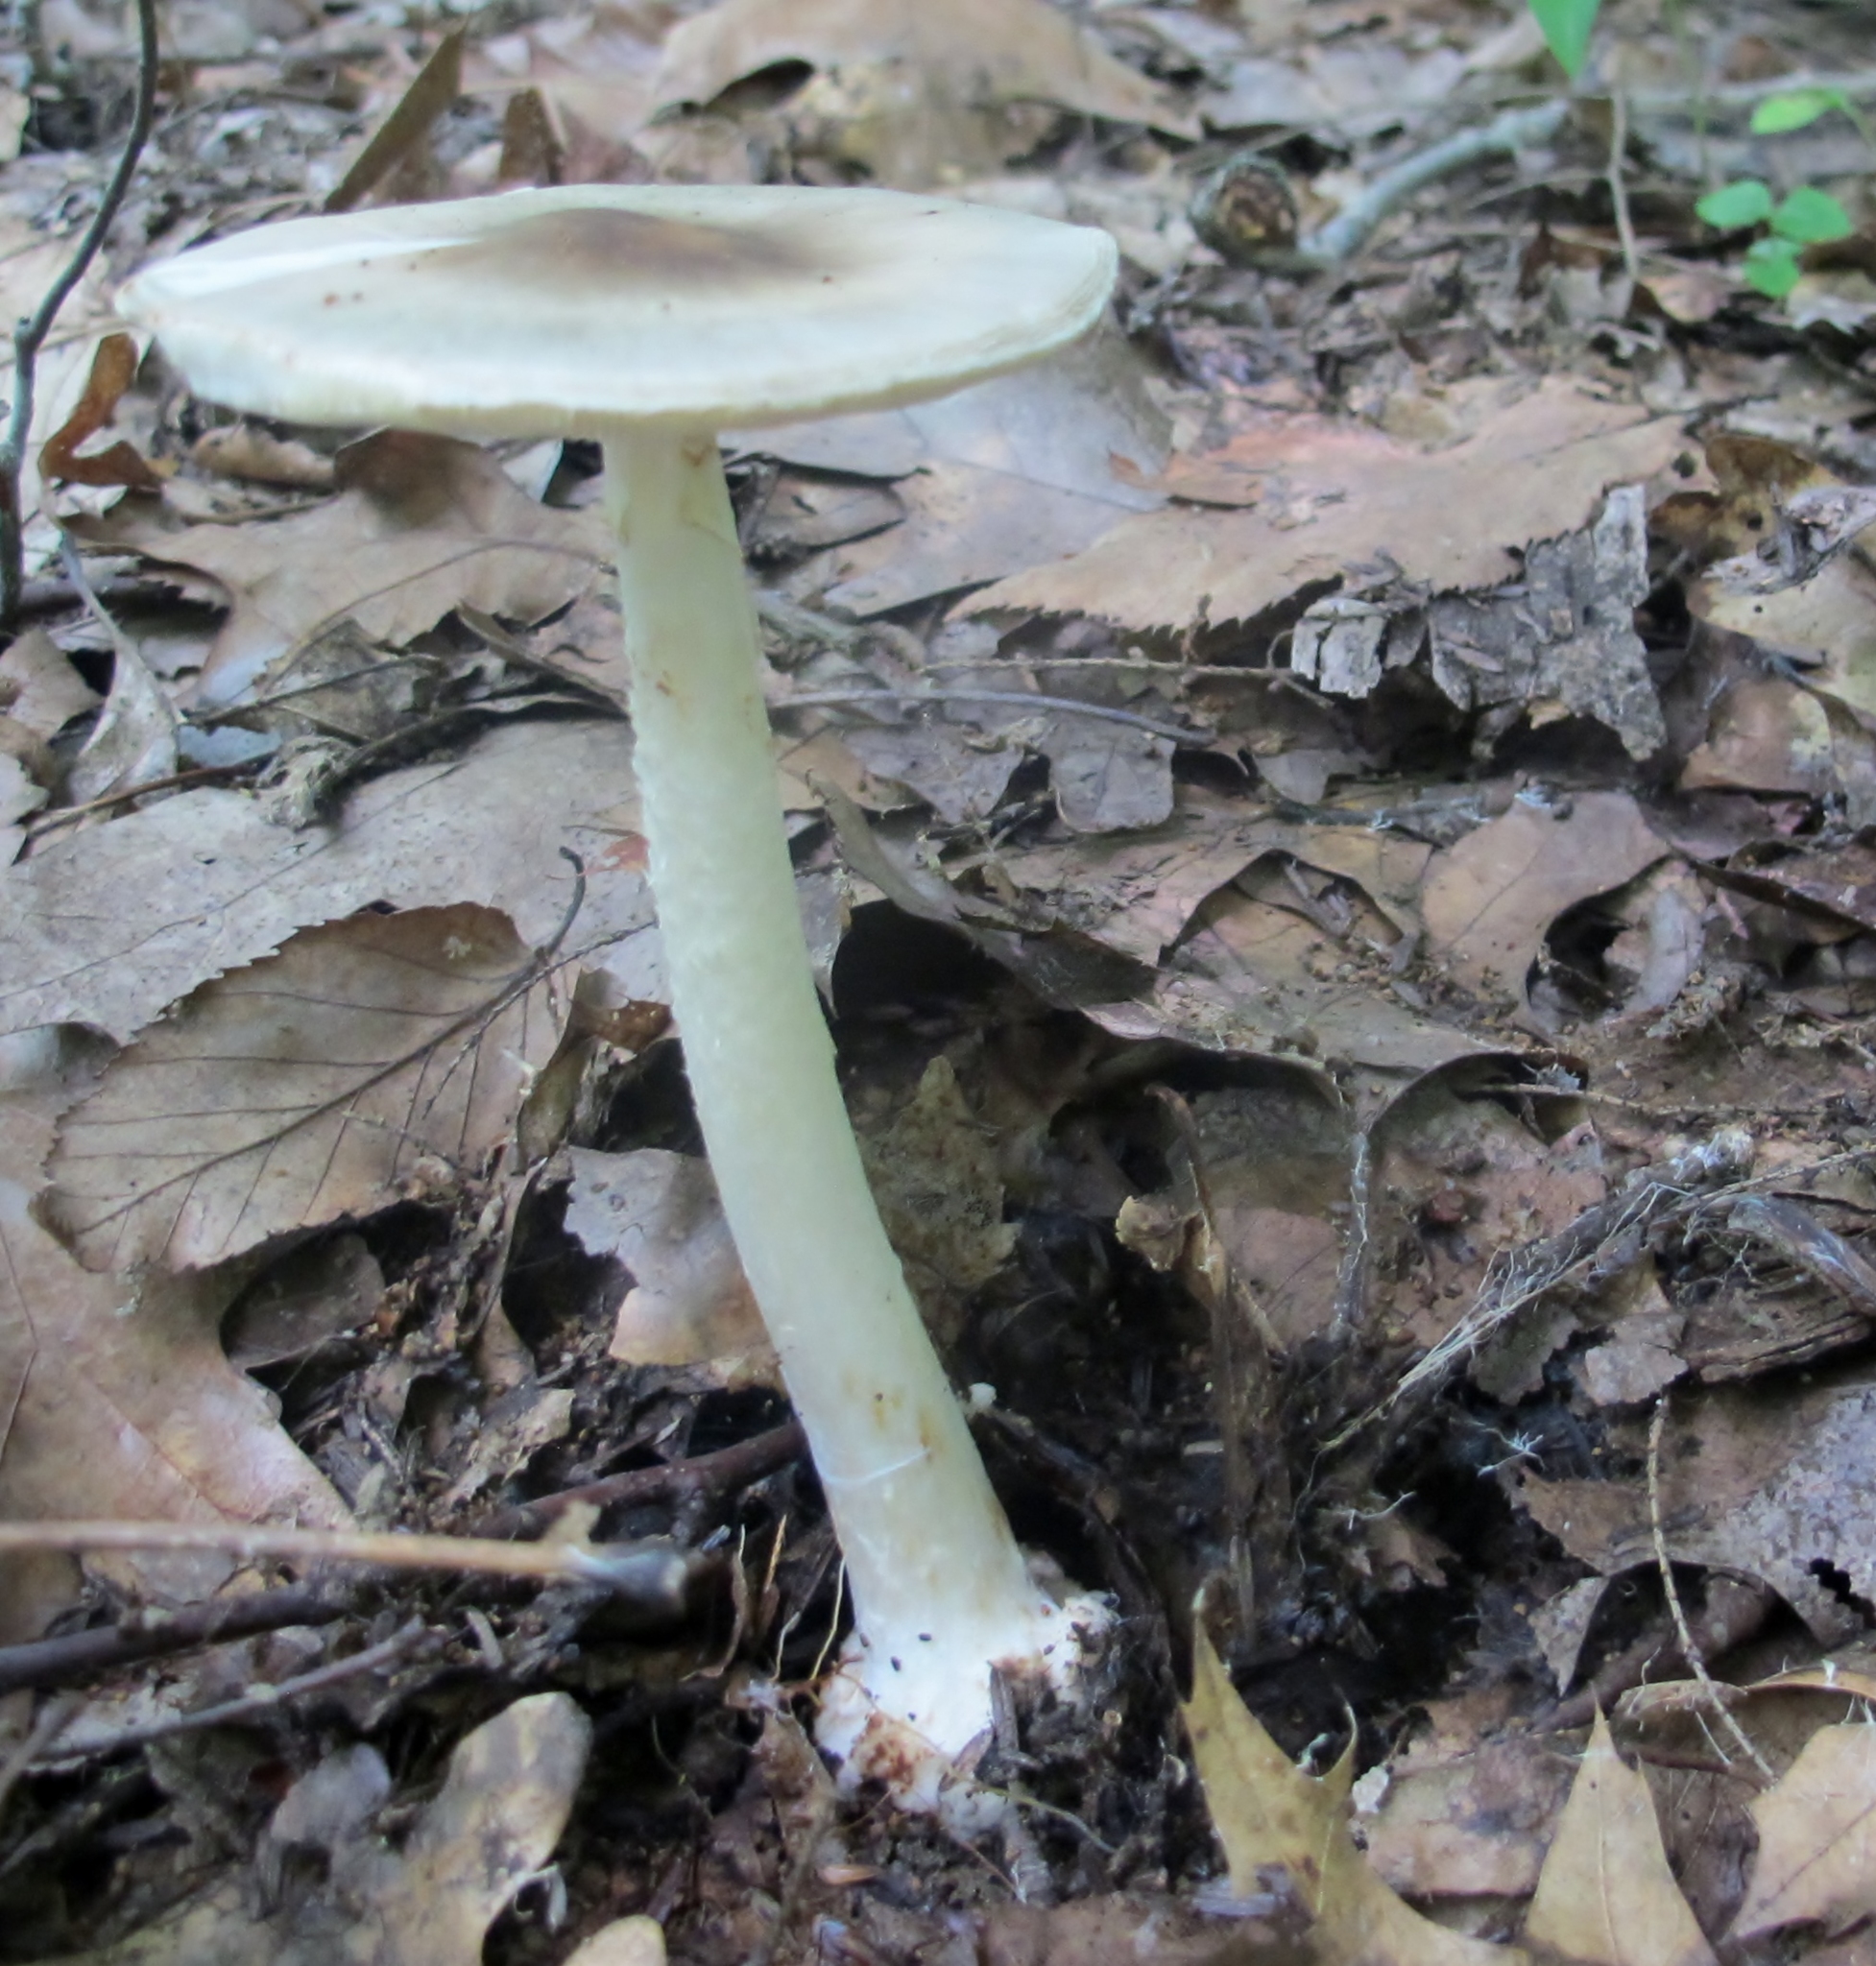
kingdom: Fungi
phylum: Basidiomycota
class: Agaricomycetes
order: Agaricales
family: Amanitaceae
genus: Amanita
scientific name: Amanita brunnescens
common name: Brown american star-footed amanita
